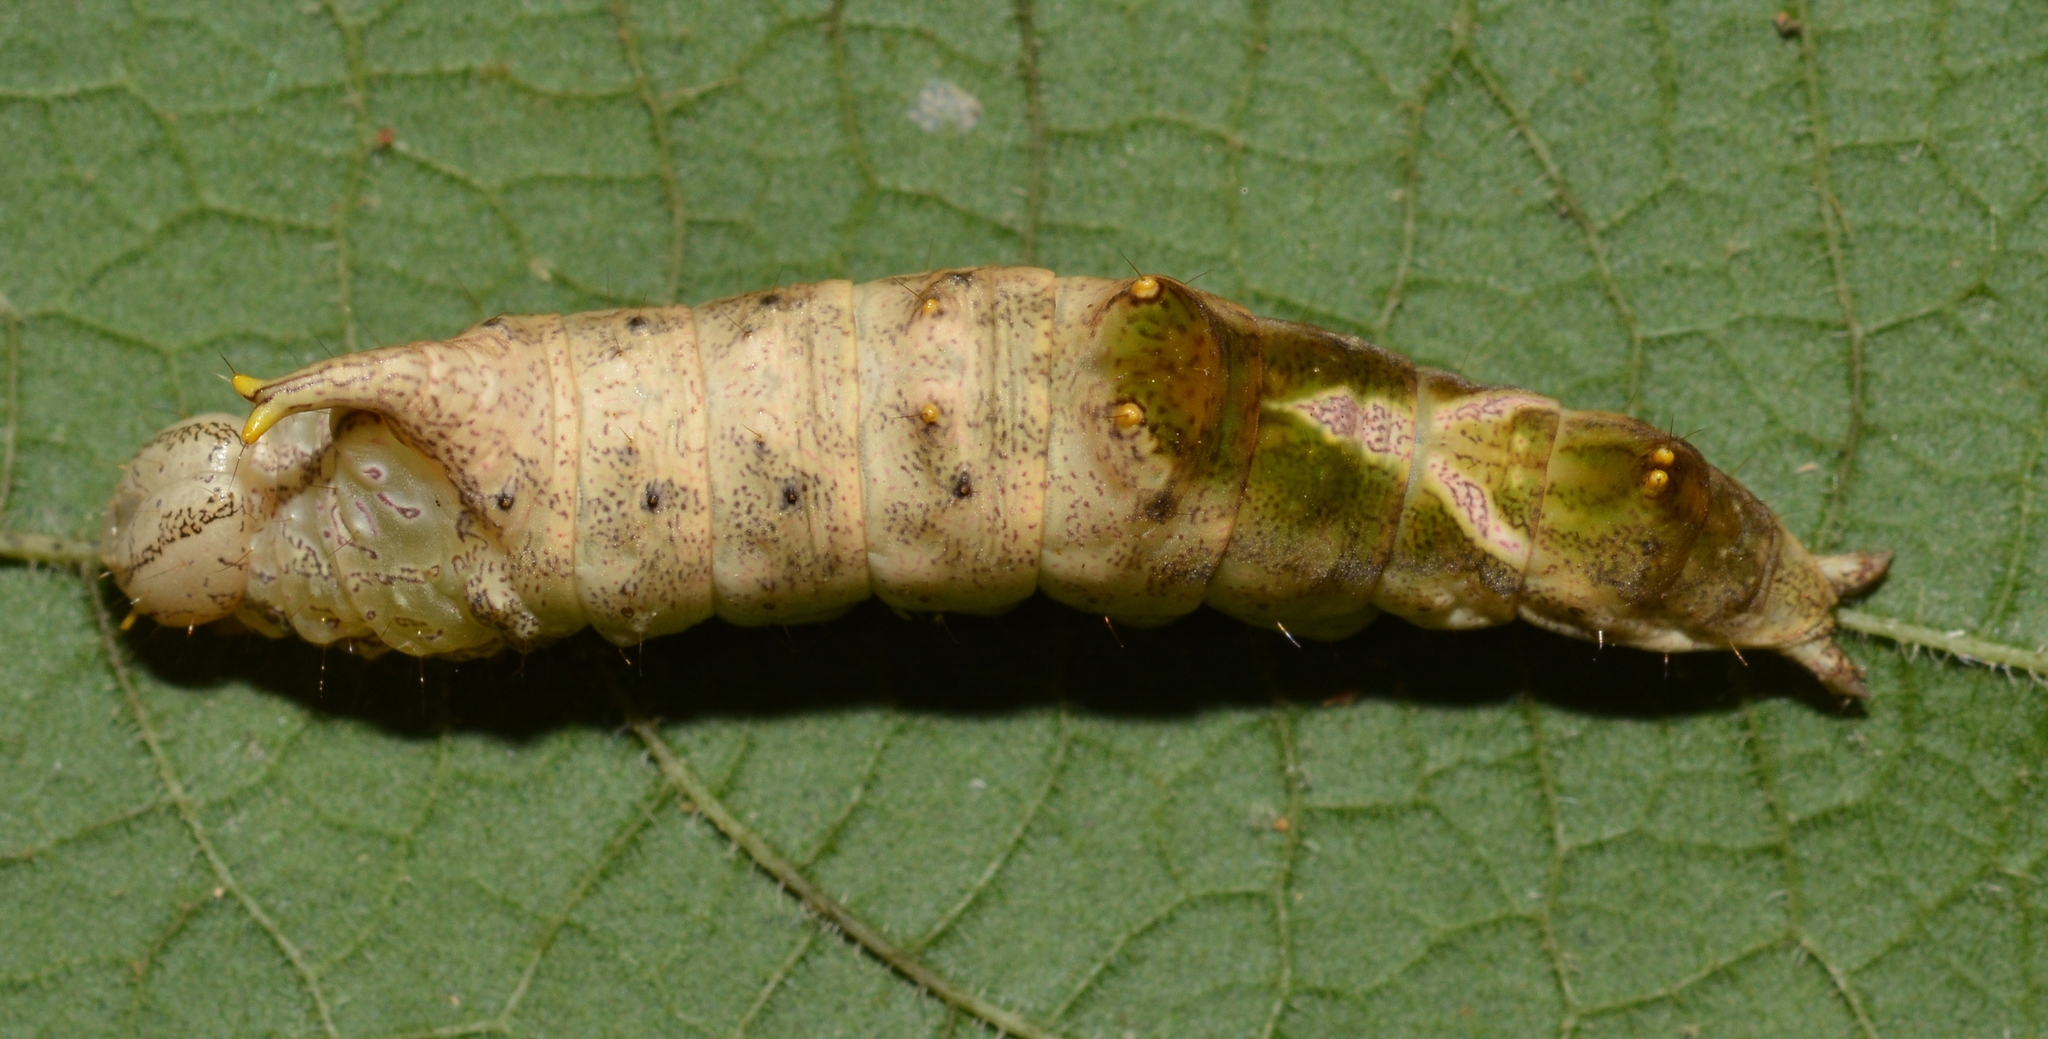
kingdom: Animalia
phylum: Arthropoda
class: Insecta
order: Lepidoptera
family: Notodontidae
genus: Schizura
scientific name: Schizura
